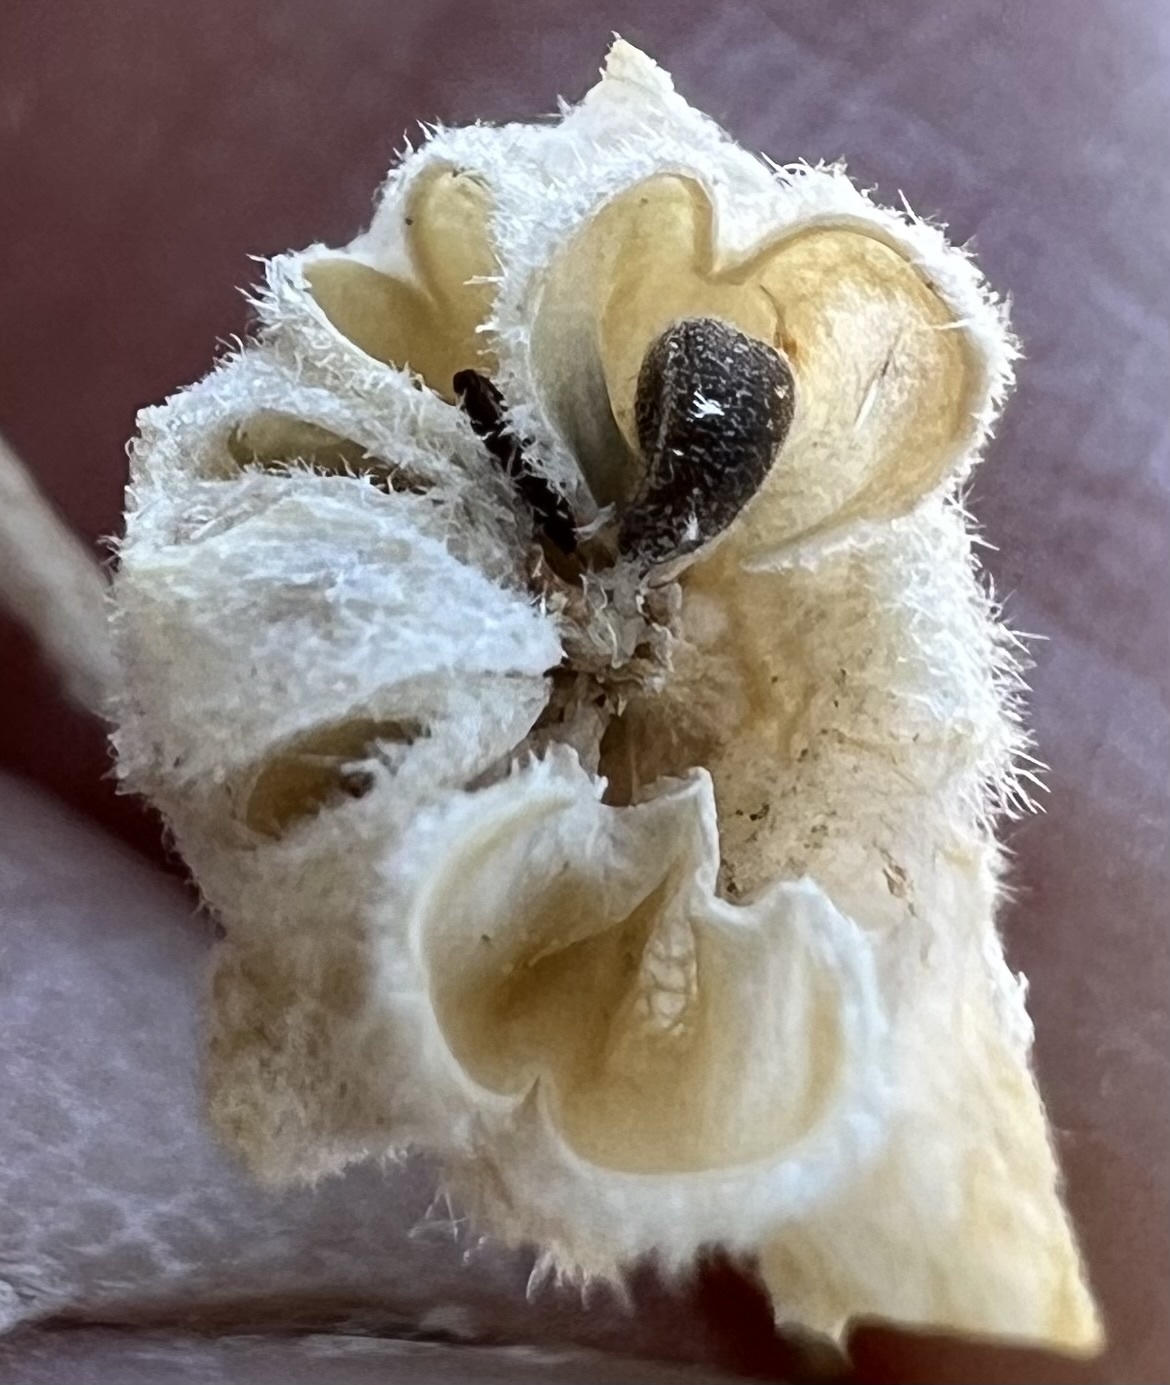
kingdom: Plantae
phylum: Tracheophyta
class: Magnoliopsida
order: Malvales
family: Malvaceae
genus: Sphaeralcea
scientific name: Sphaeralcea ambigua
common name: Apricot globe-mallow
